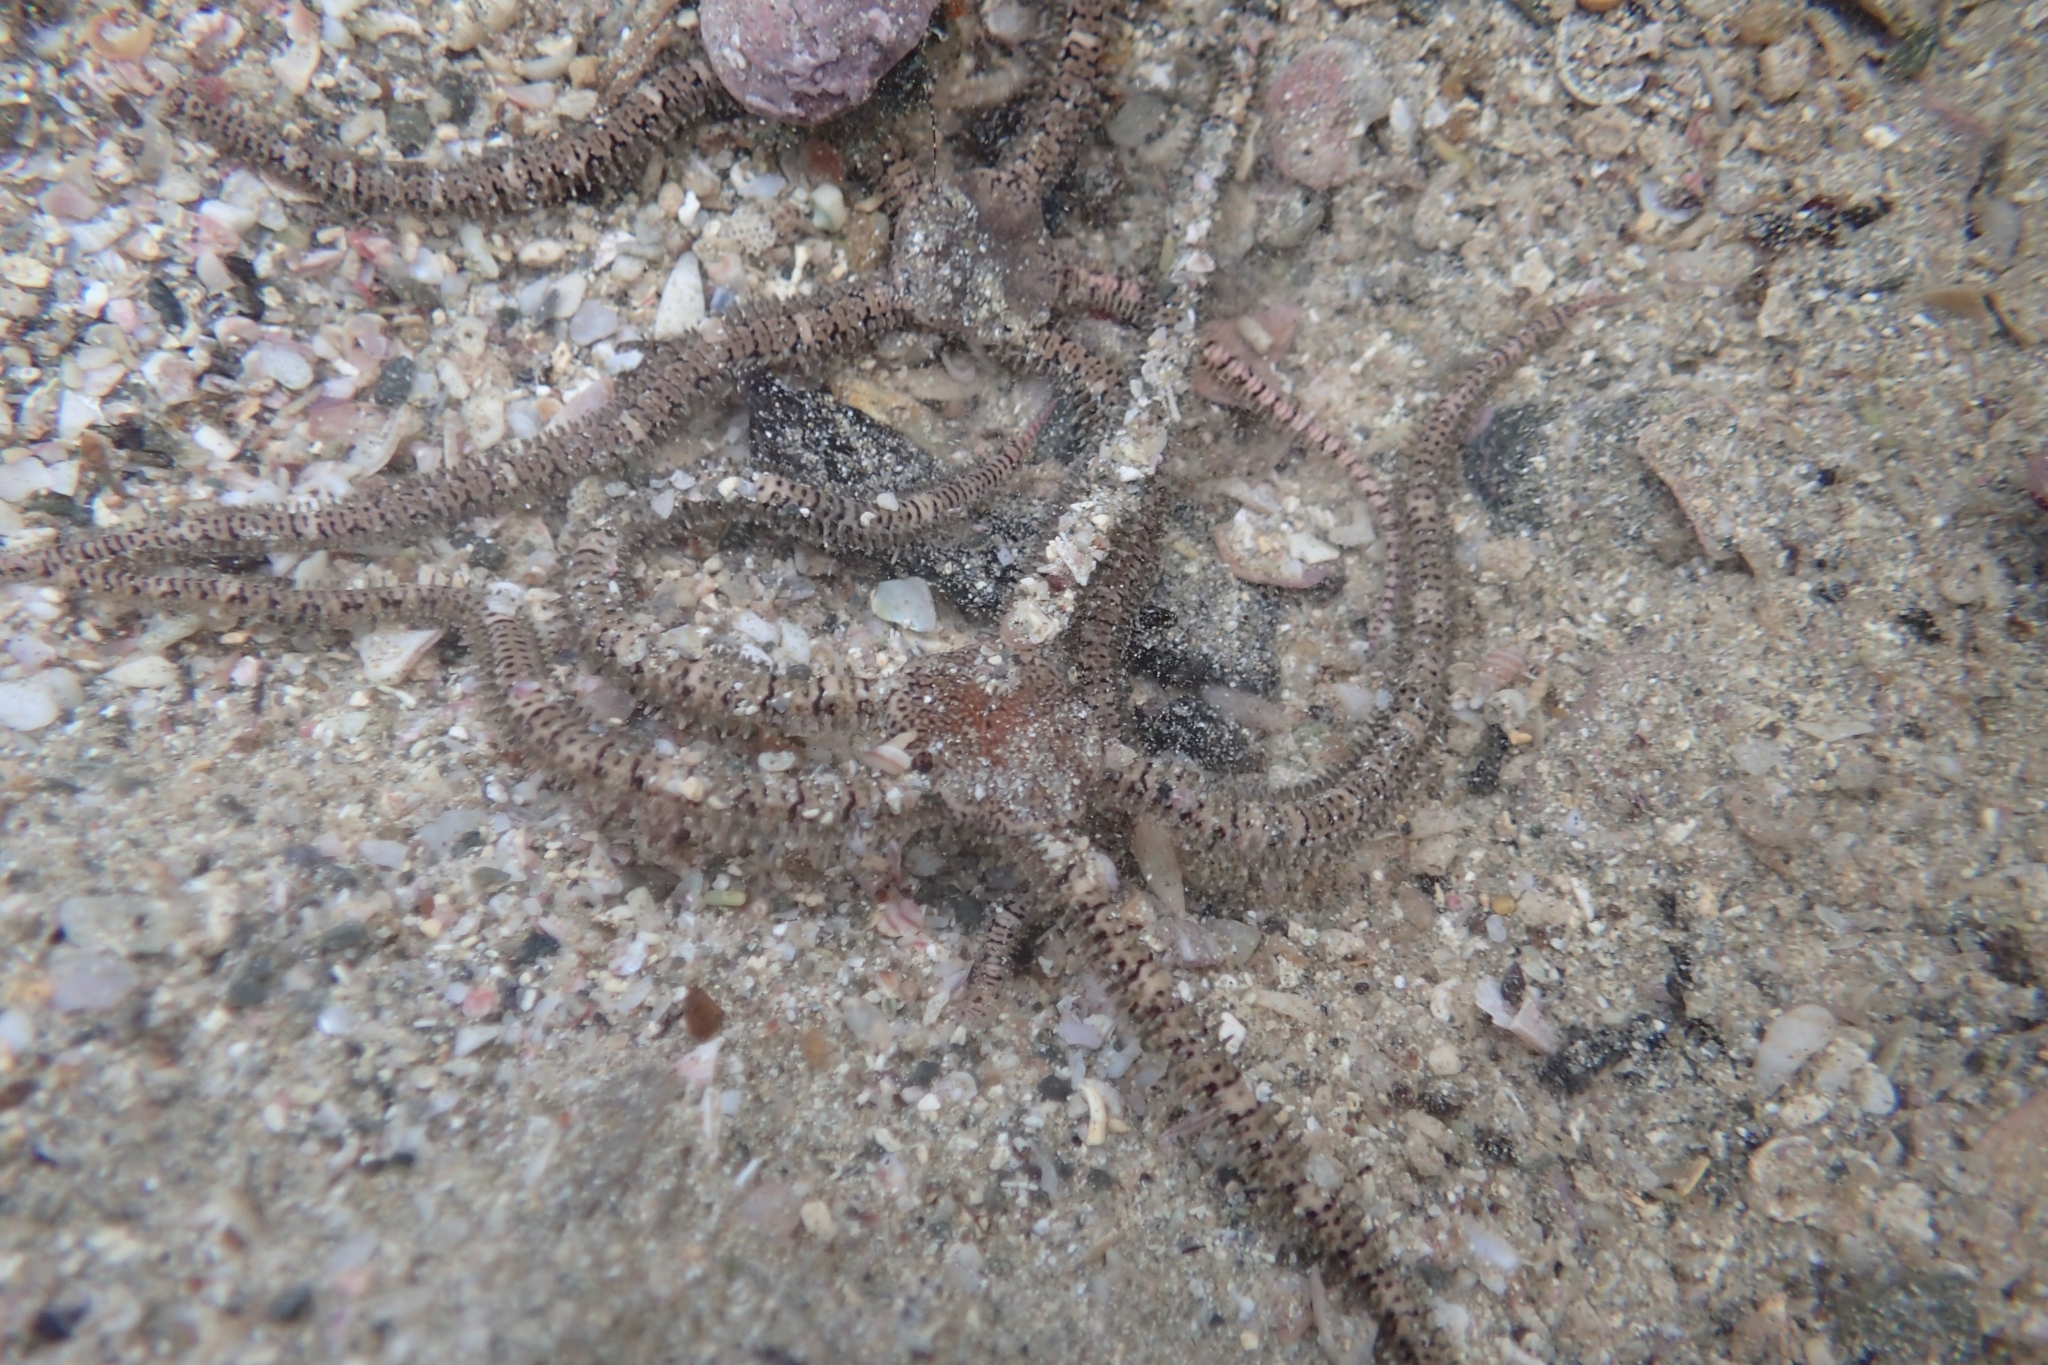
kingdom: Animalia
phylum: Echinodermata
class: Ophiuroidea
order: Amphilepidida
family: Ophionereididae
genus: Ophionereis
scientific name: Ophionereis fasciata
